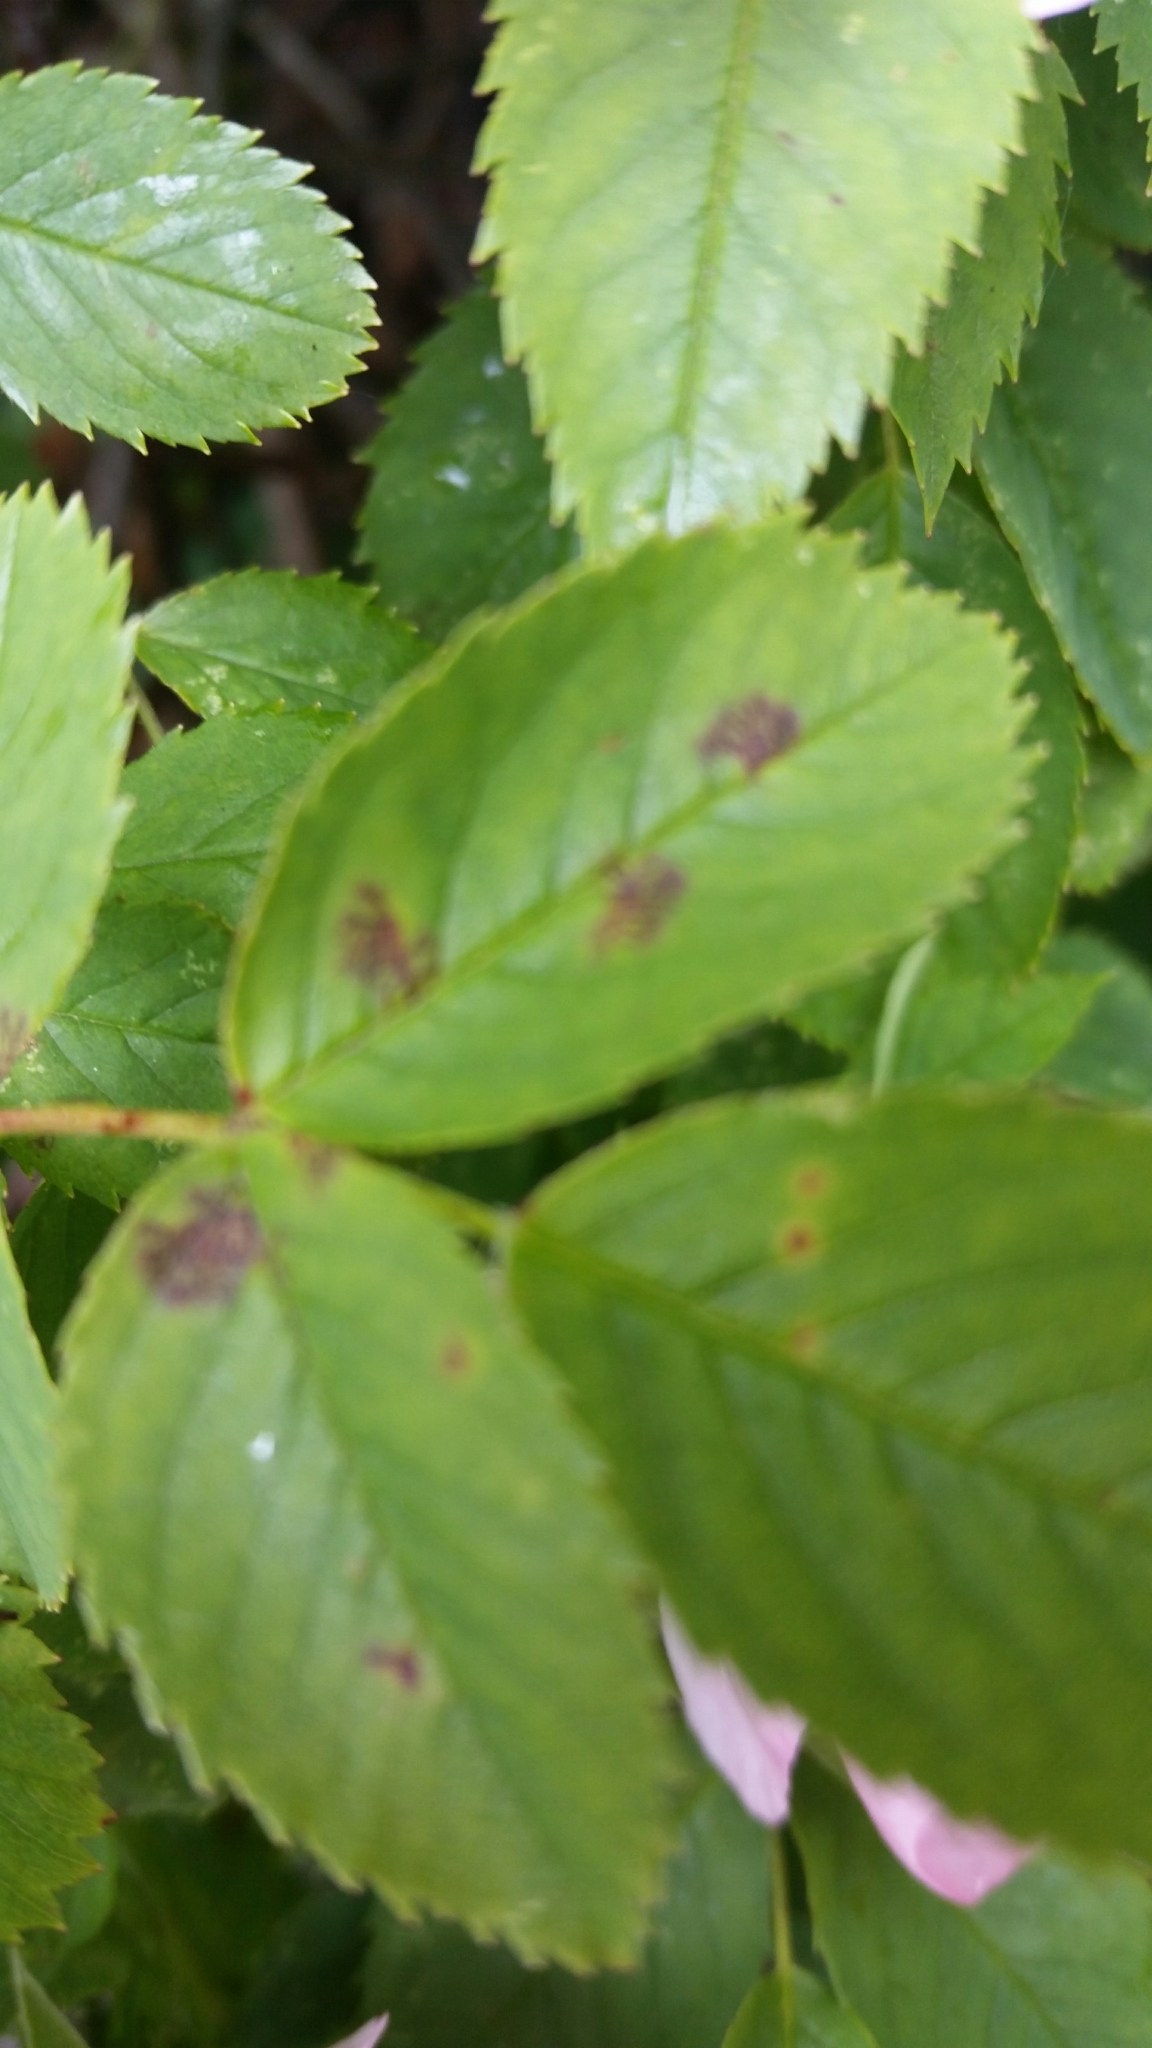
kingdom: Fungi
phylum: Ascomycota
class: Leotiomycetes
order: Helotiales
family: Drepanopezizaceae
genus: Diplocarpon
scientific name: Diplocarpon rosae
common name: Rose black-spot
